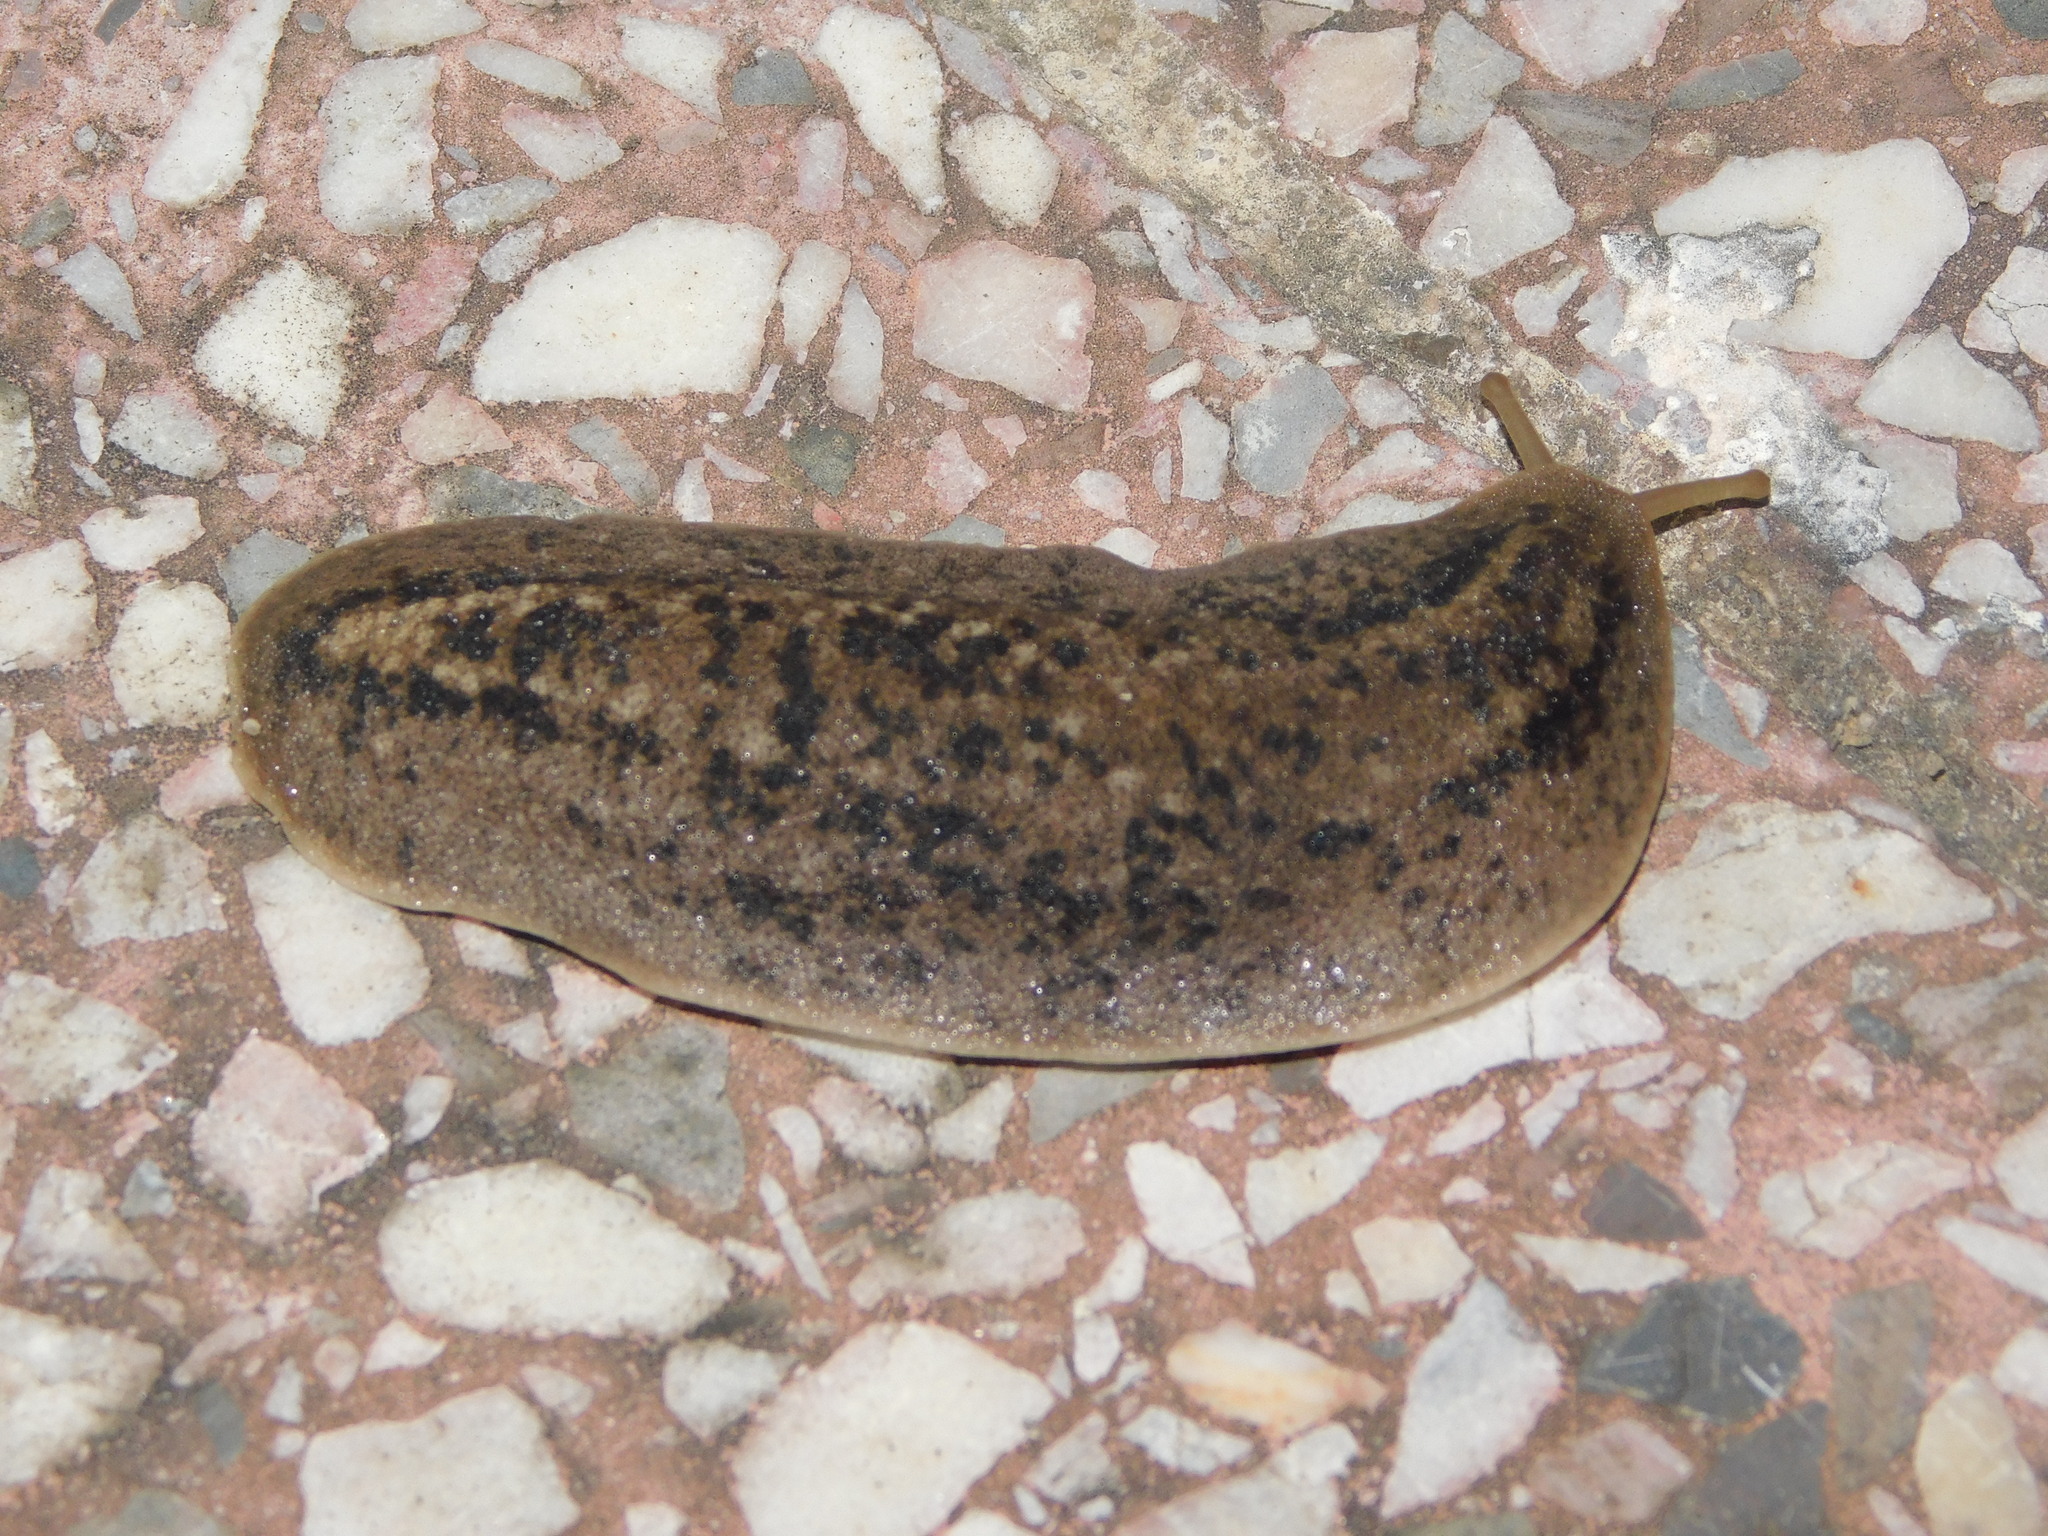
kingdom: Animalia
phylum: Mollusca
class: Gastropoda
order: Systellommatophora
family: Veronicellidae
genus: Phyllocaulis
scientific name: Phyllocaulis soleiformis
